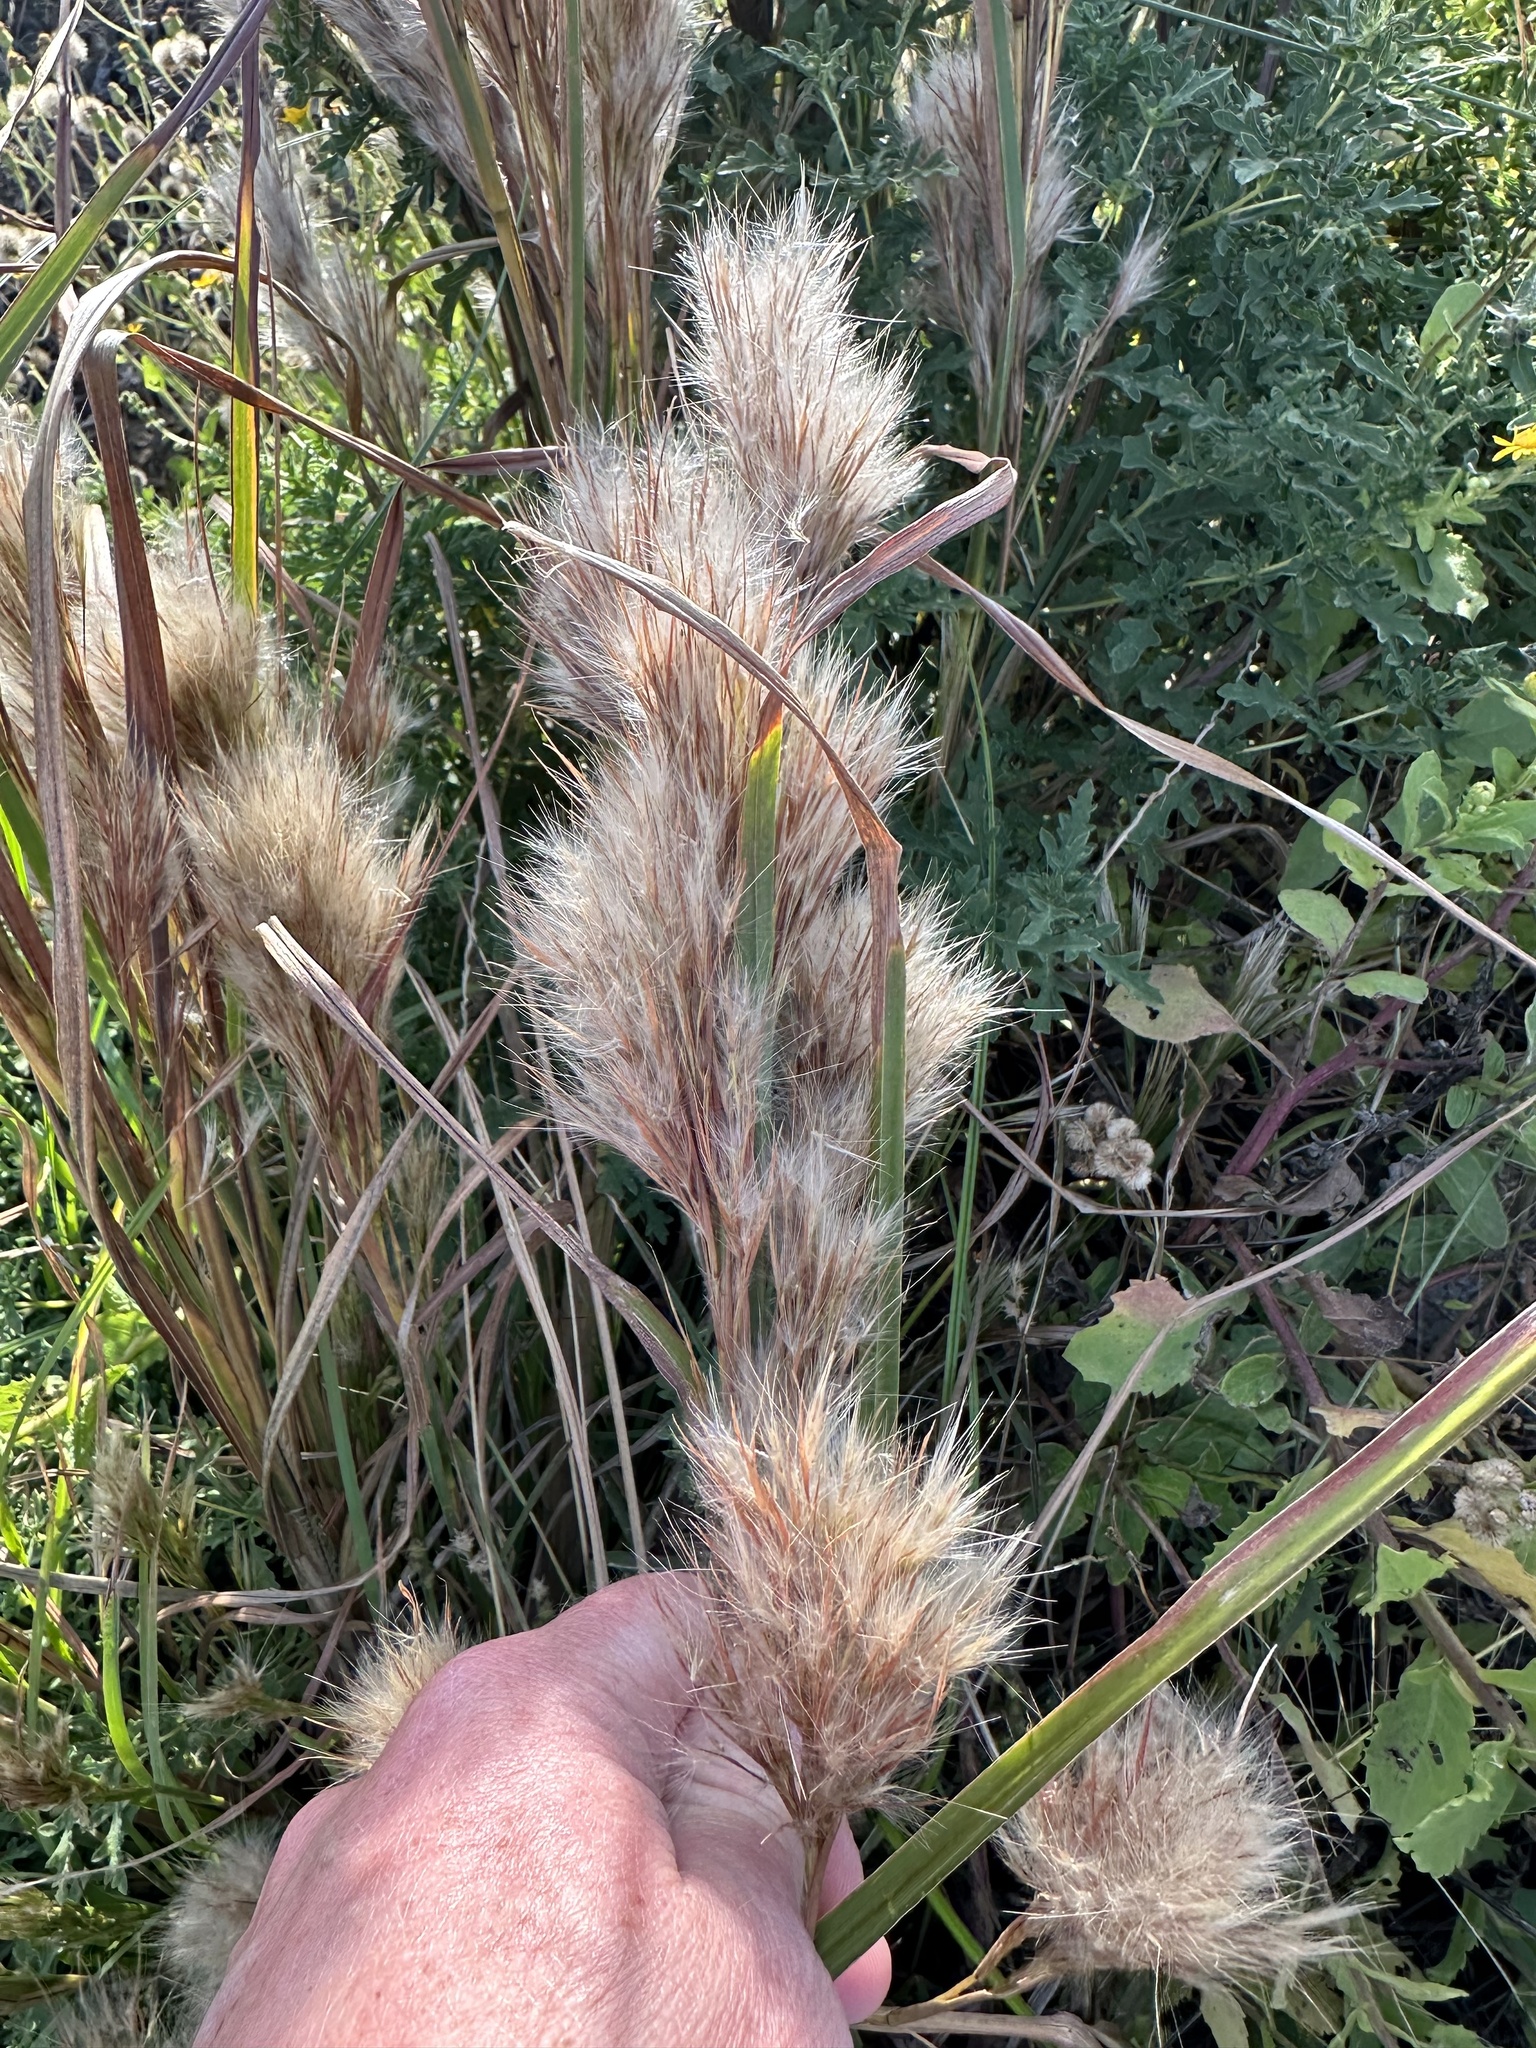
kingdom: Plantae
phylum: Tracheophyta
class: Liliopsida
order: Poales
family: Poaceae
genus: Andropogon
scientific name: Andropogon tenuispatheus
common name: Bushy bluestem
